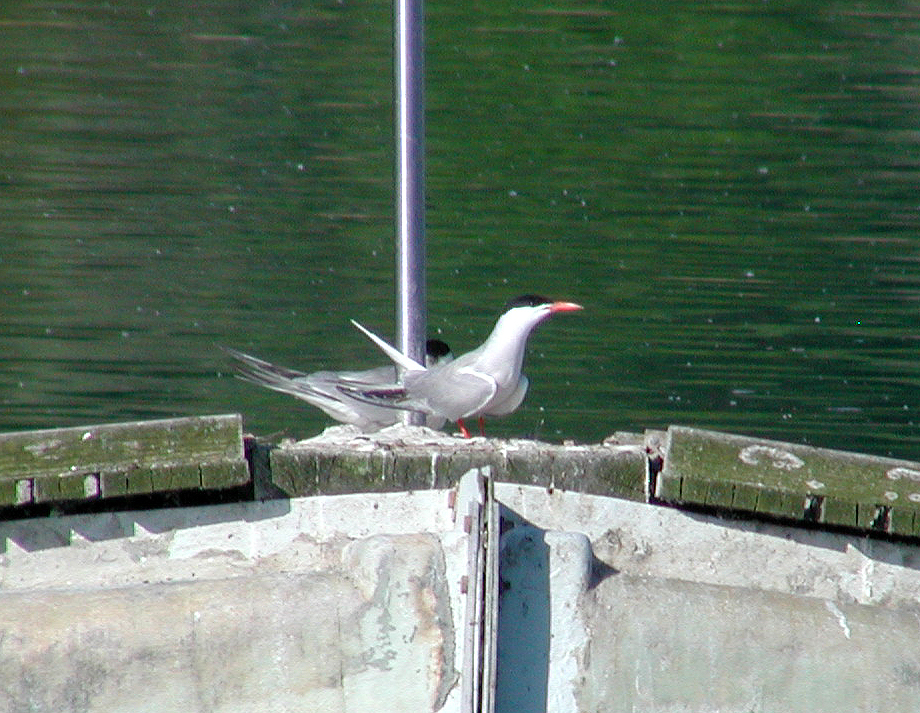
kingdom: Animalia
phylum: Chordata
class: Aves
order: Charadriiformes
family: Laridae
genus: Sterna
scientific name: Sterna hirundo
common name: Common tern
